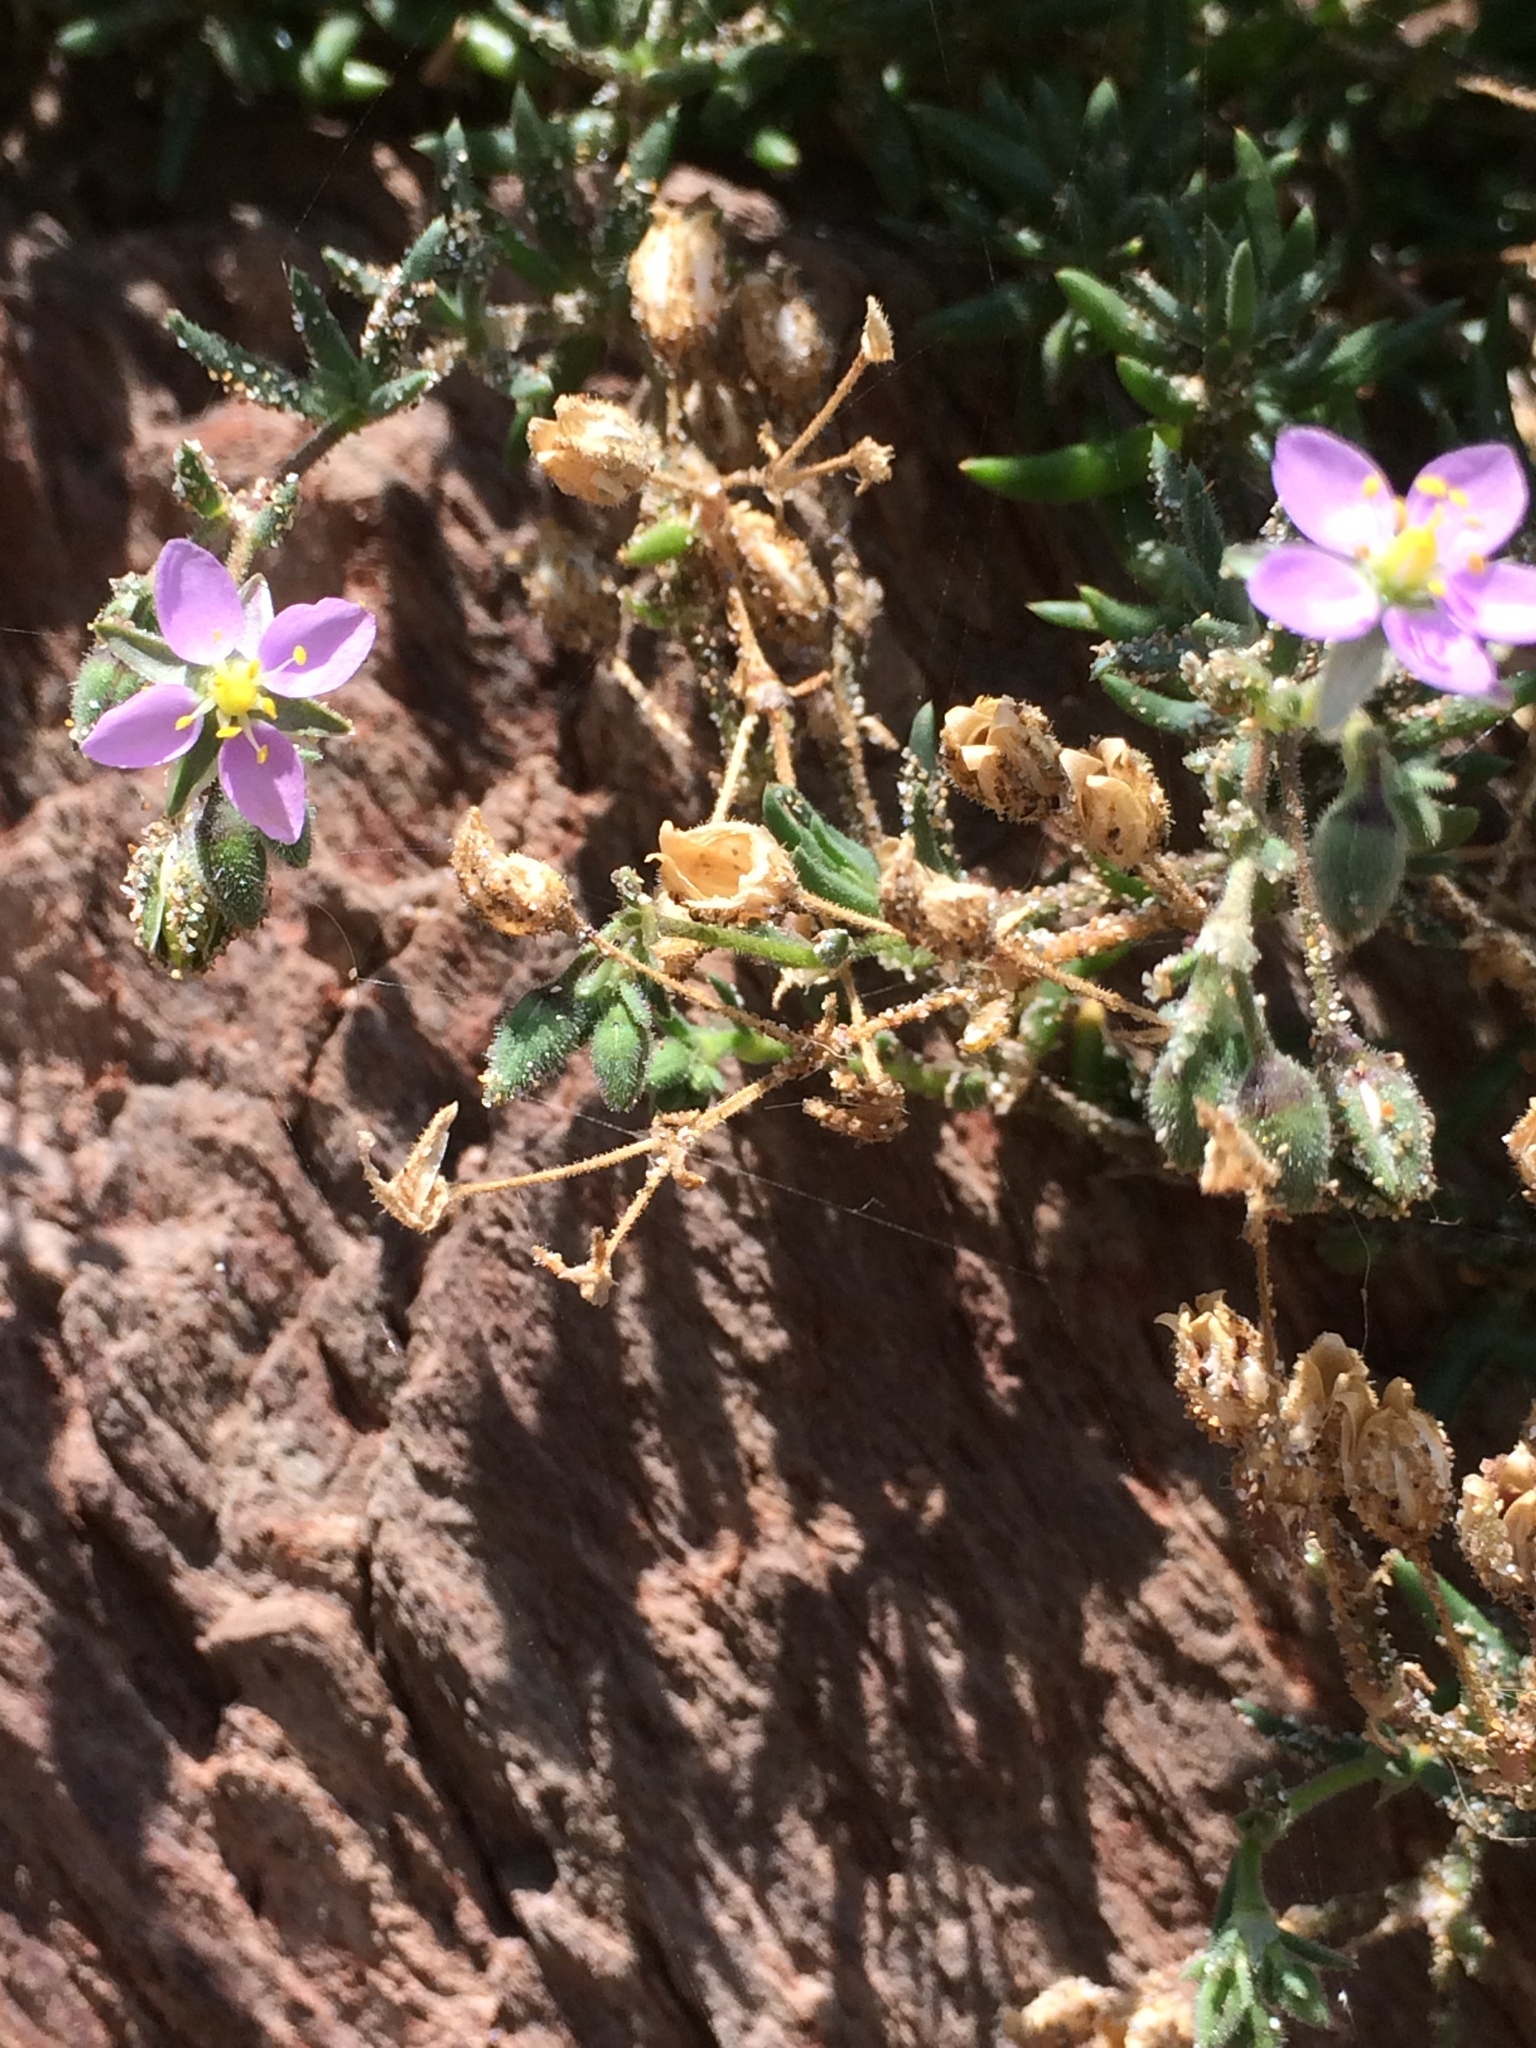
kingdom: Plantae
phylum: Tracheophyta
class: Magnoliopsida
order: Caryophyllales
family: Caryophyllaceae
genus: Spergularia
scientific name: Spergularia marina
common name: Lesser sea-spurrey
